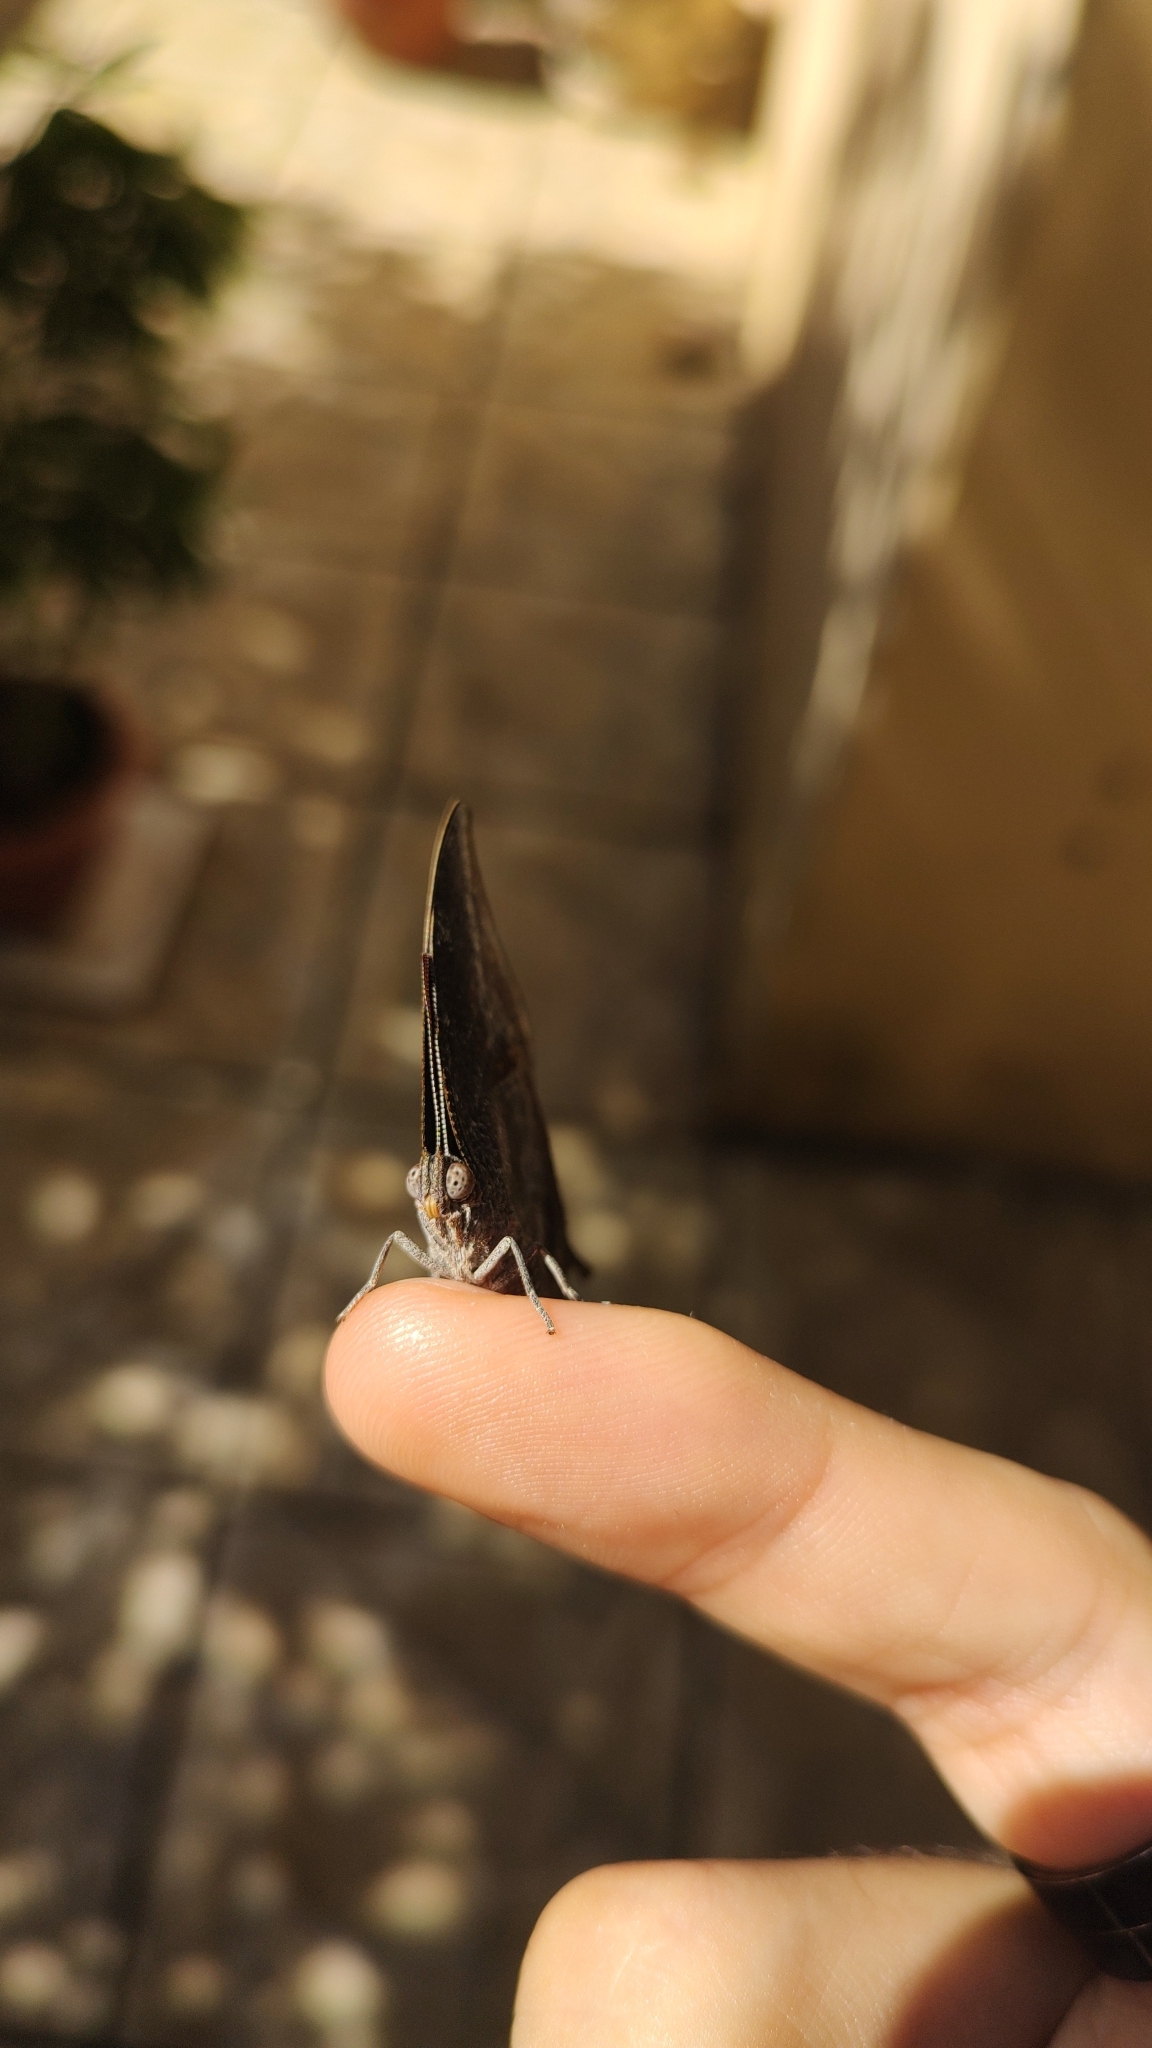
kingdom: Animalia
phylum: Arthropoda
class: Insecta
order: Lepidoptera
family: Nymphalidae
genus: Memphis
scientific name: Memphis moruus
